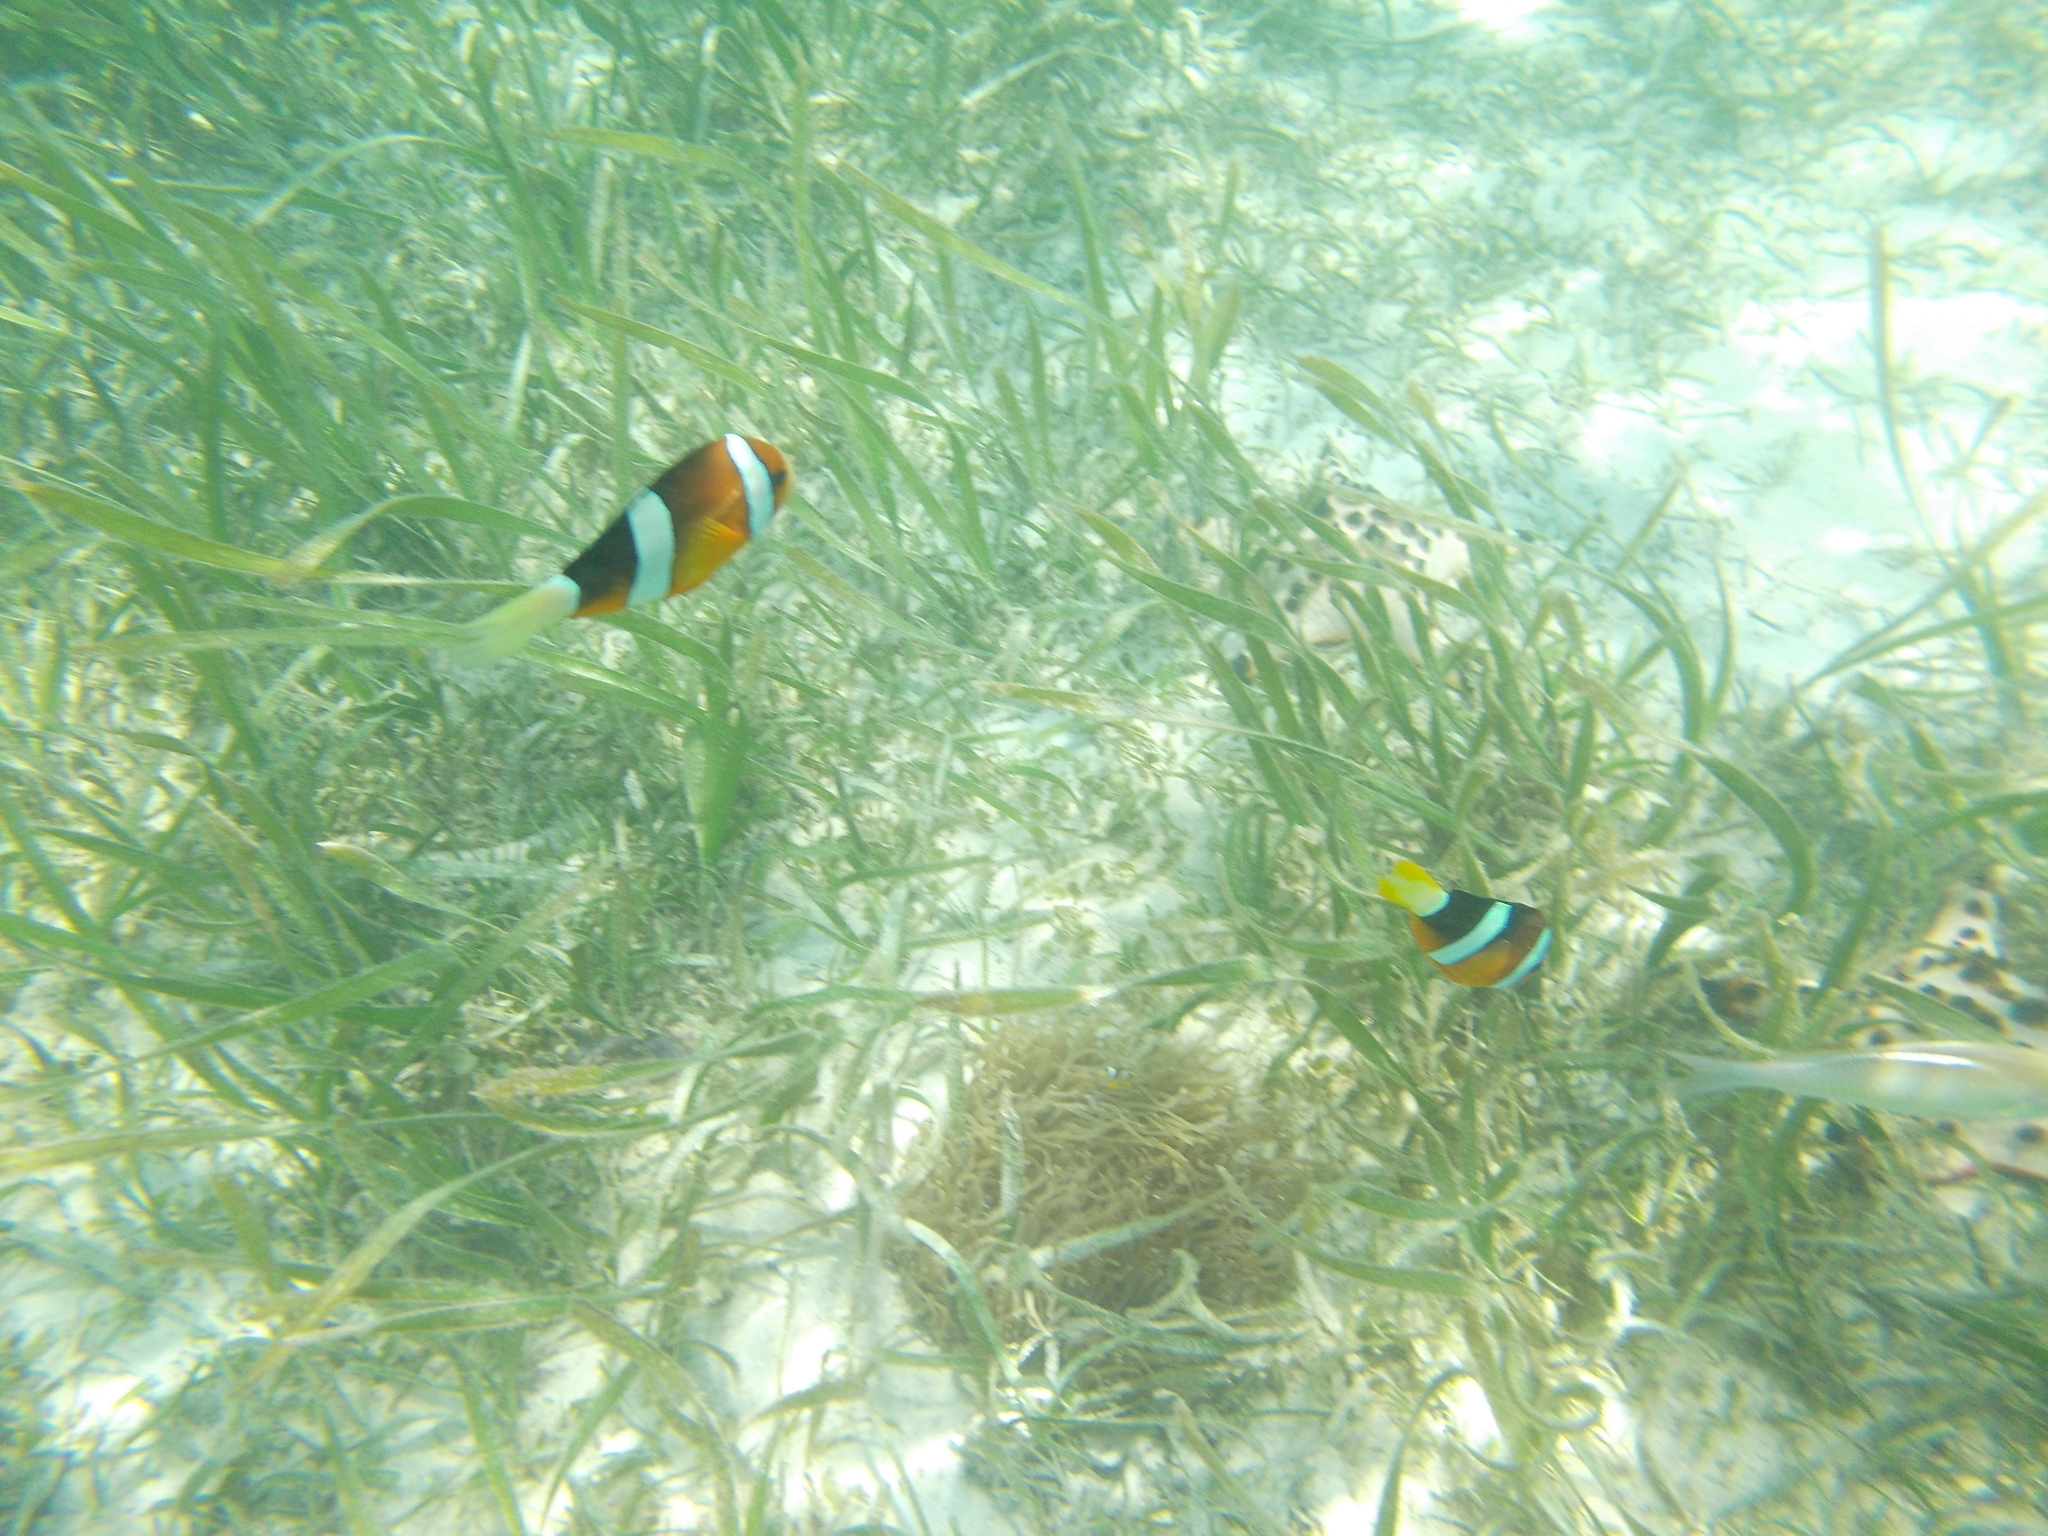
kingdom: Animalia
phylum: Chordata
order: Perciformes
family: Pomacentridae
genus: Amphiprion
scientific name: Amphiprion clarkii
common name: Clark's anemonefish
